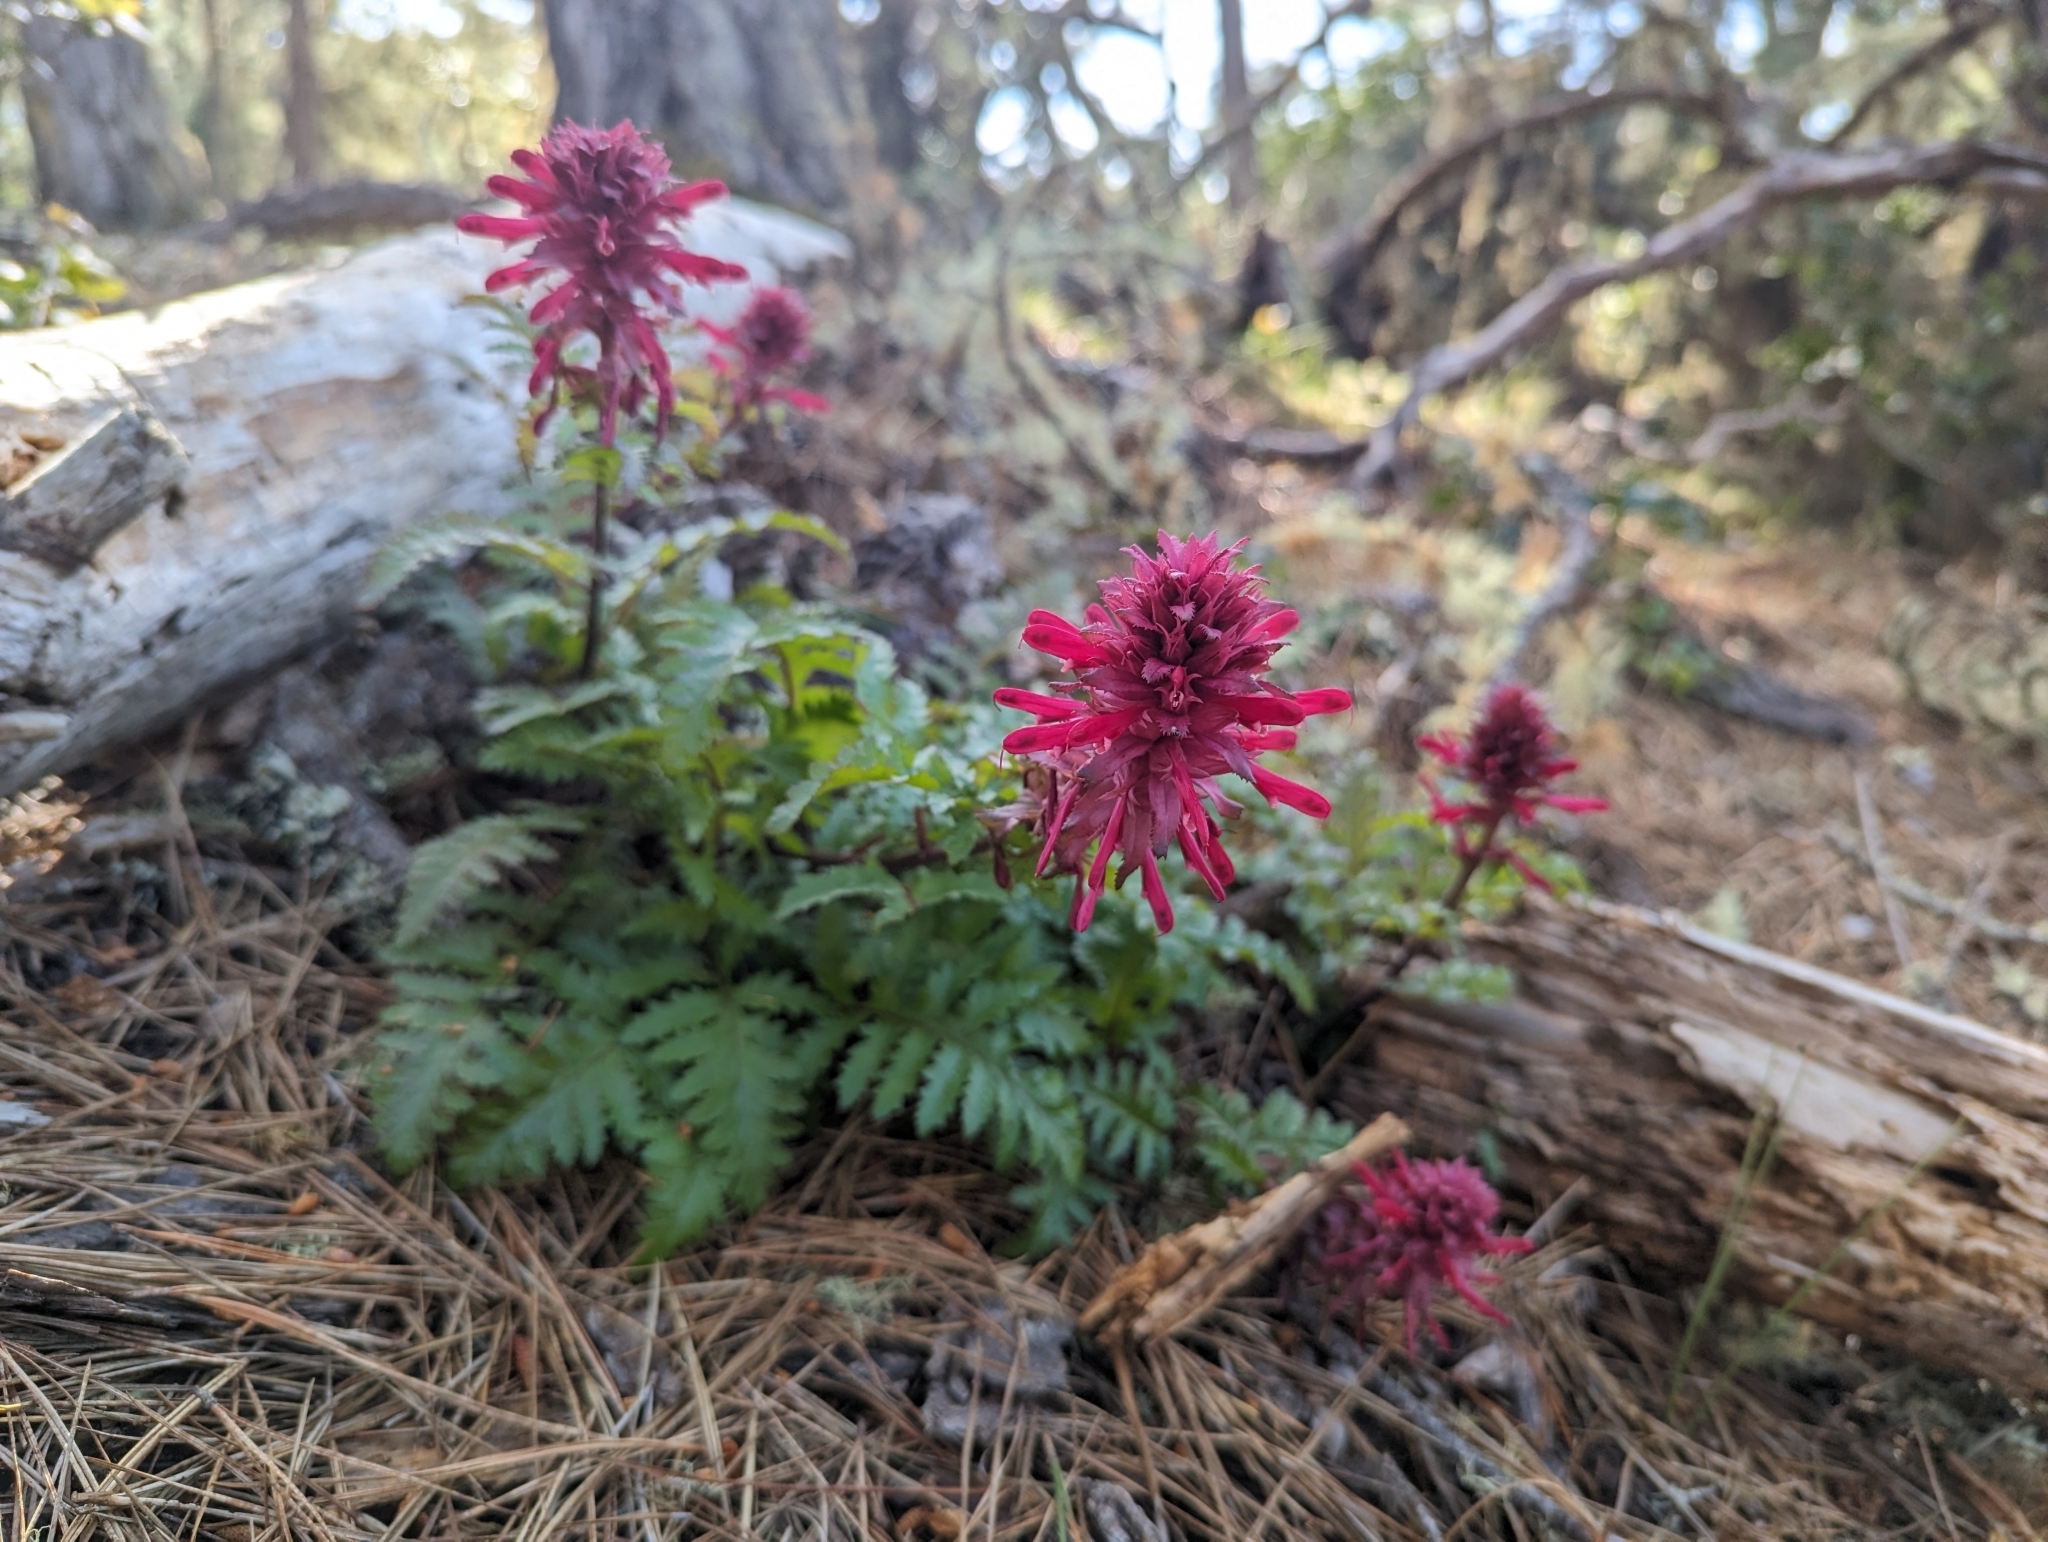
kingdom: Plantae
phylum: Tracheophyta
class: Magnoliopsida
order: Lamiales
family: Orobanchaceae
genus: Pedicularis
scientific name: Pedicularis densiflora
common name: Indian warrior
